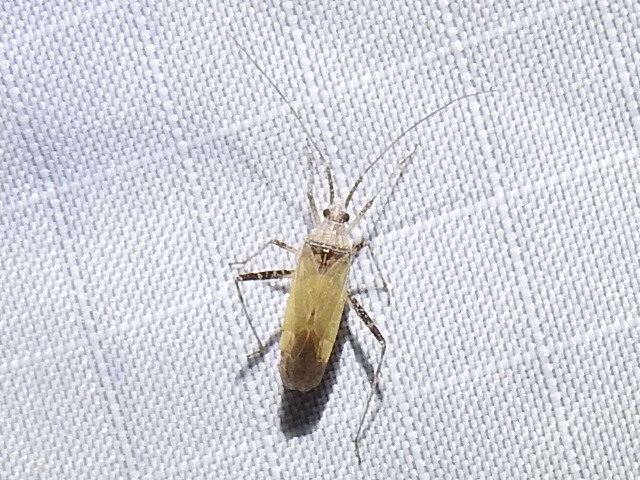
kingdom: Animalia
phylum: Arthropoda
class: Insecta
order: Hemiptera
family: Miridae
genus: Phytocoris
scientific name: Phytocoris planituberis
